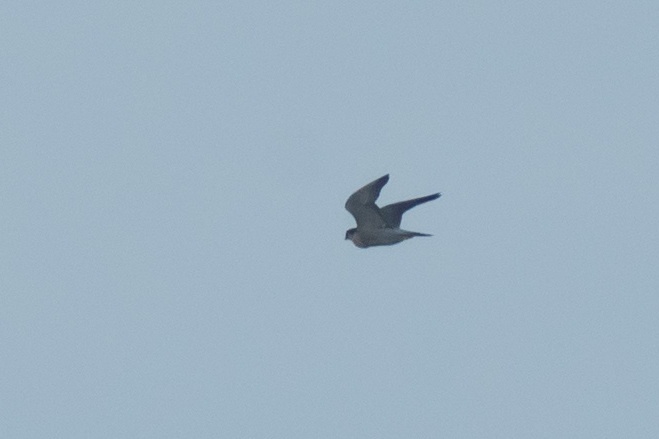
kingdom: Animalia
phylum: Chordata
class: Aves
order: Falconiformes
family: Falconidae
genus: Falco
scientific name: Falco peregrinus
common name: Peregrine falcon
